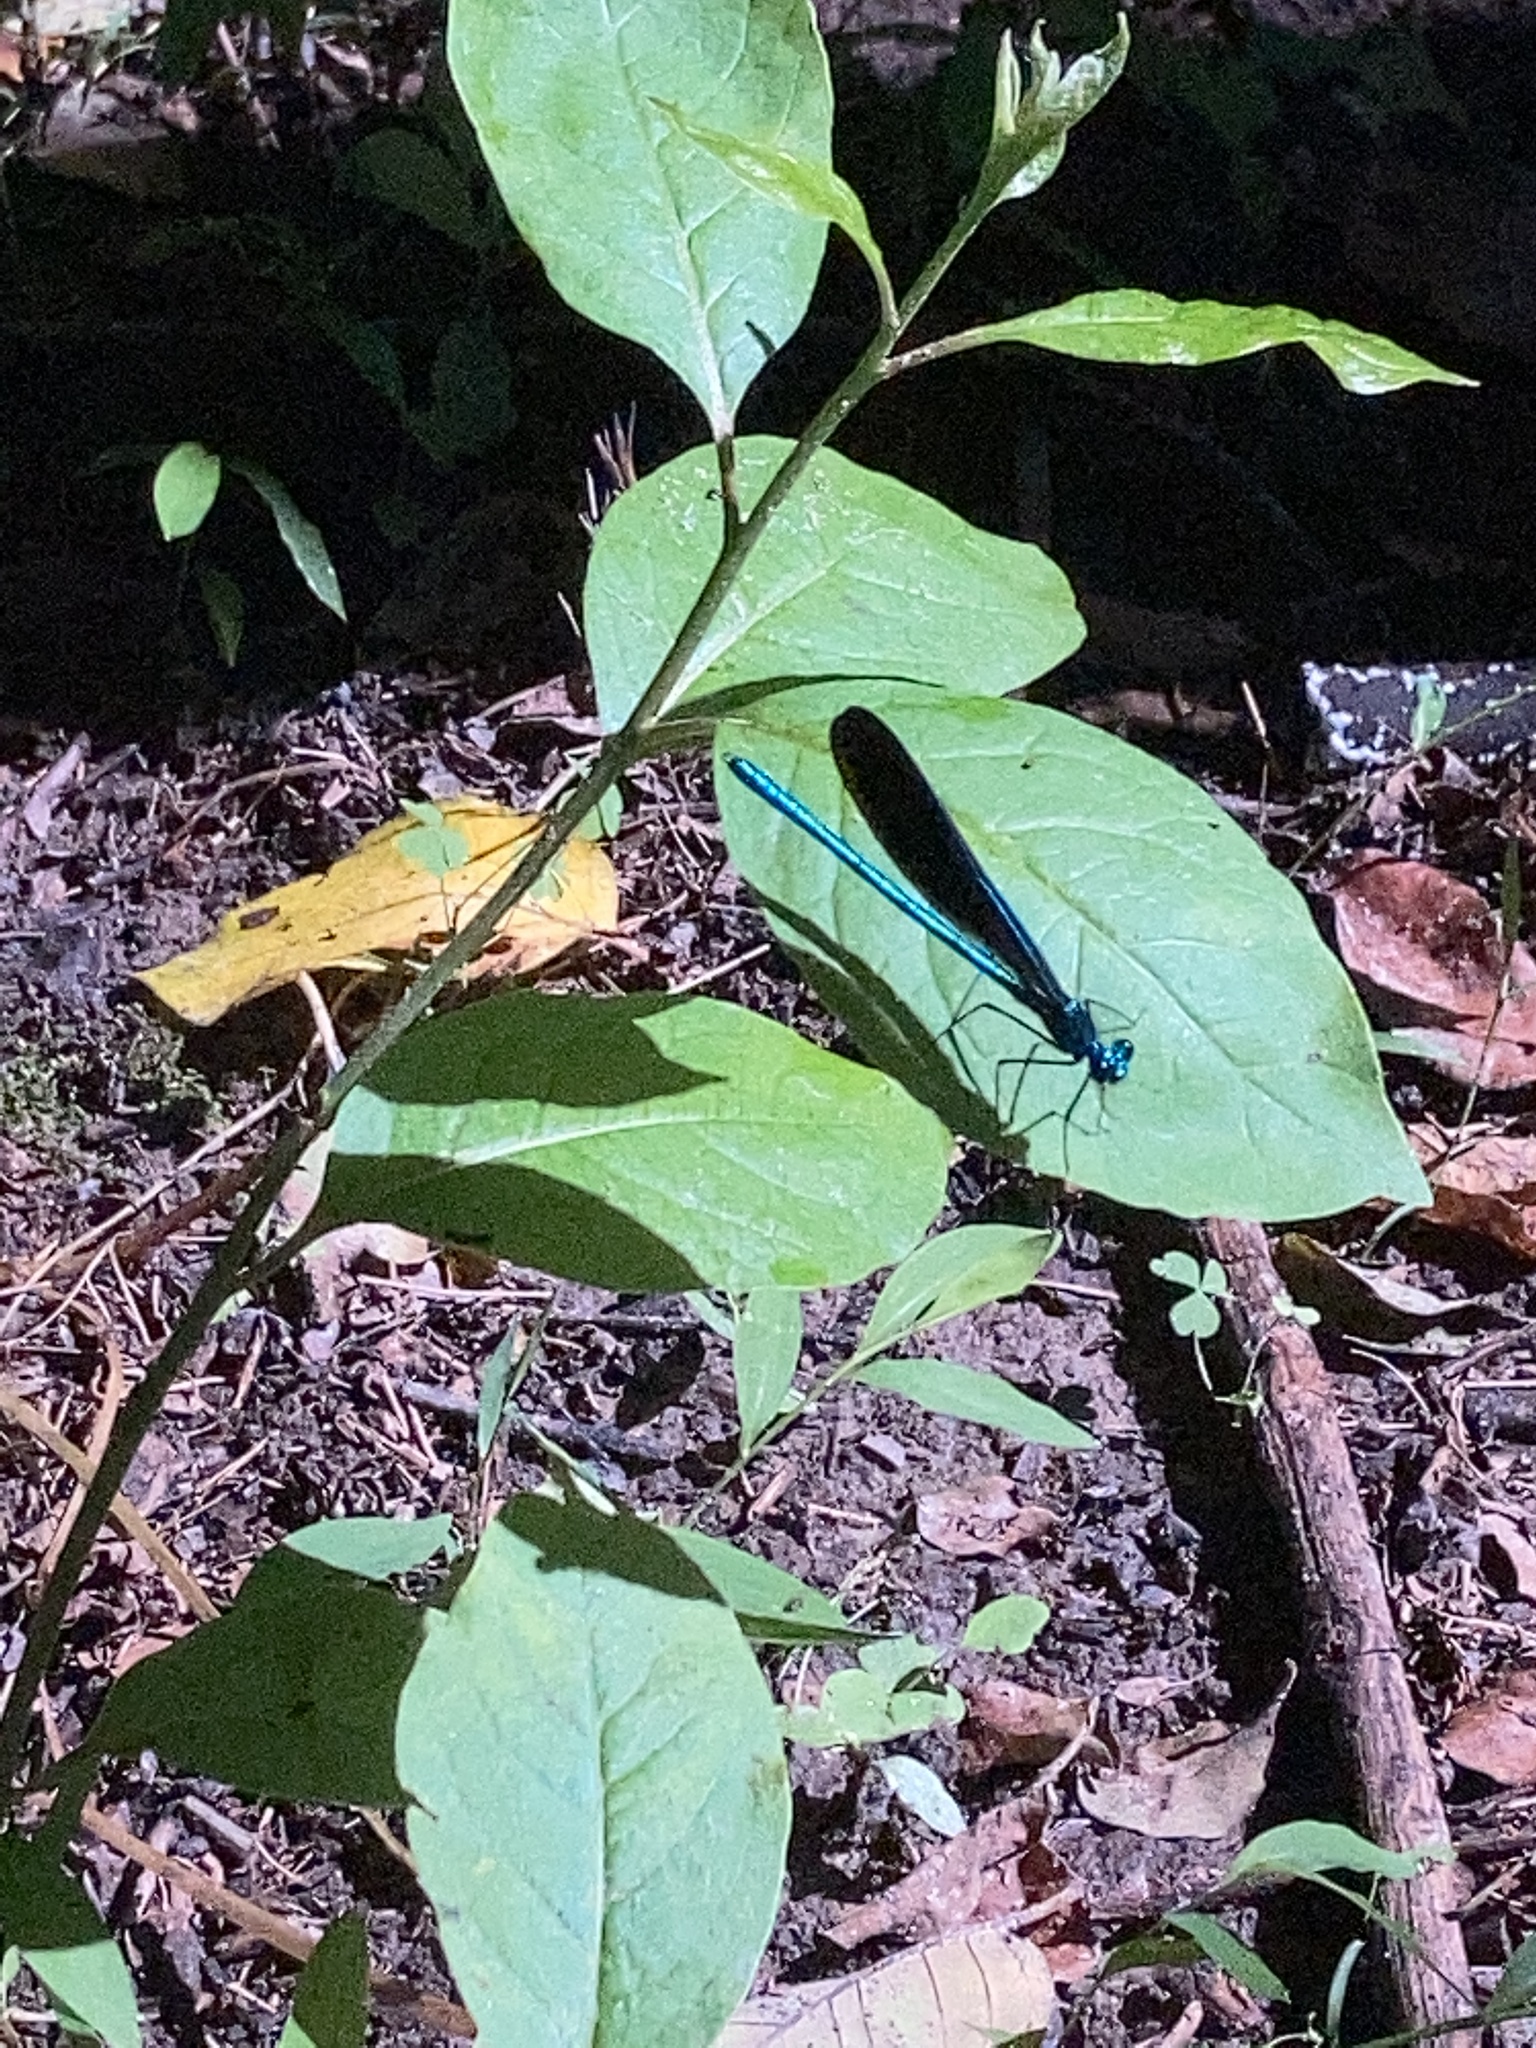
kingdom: Animalia
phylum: Arthropoda
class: Insecta
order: Odonata
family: Calopterygidae
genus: Calopteryx
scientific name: Calopteryx maculata
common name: Ebony jewelwing
